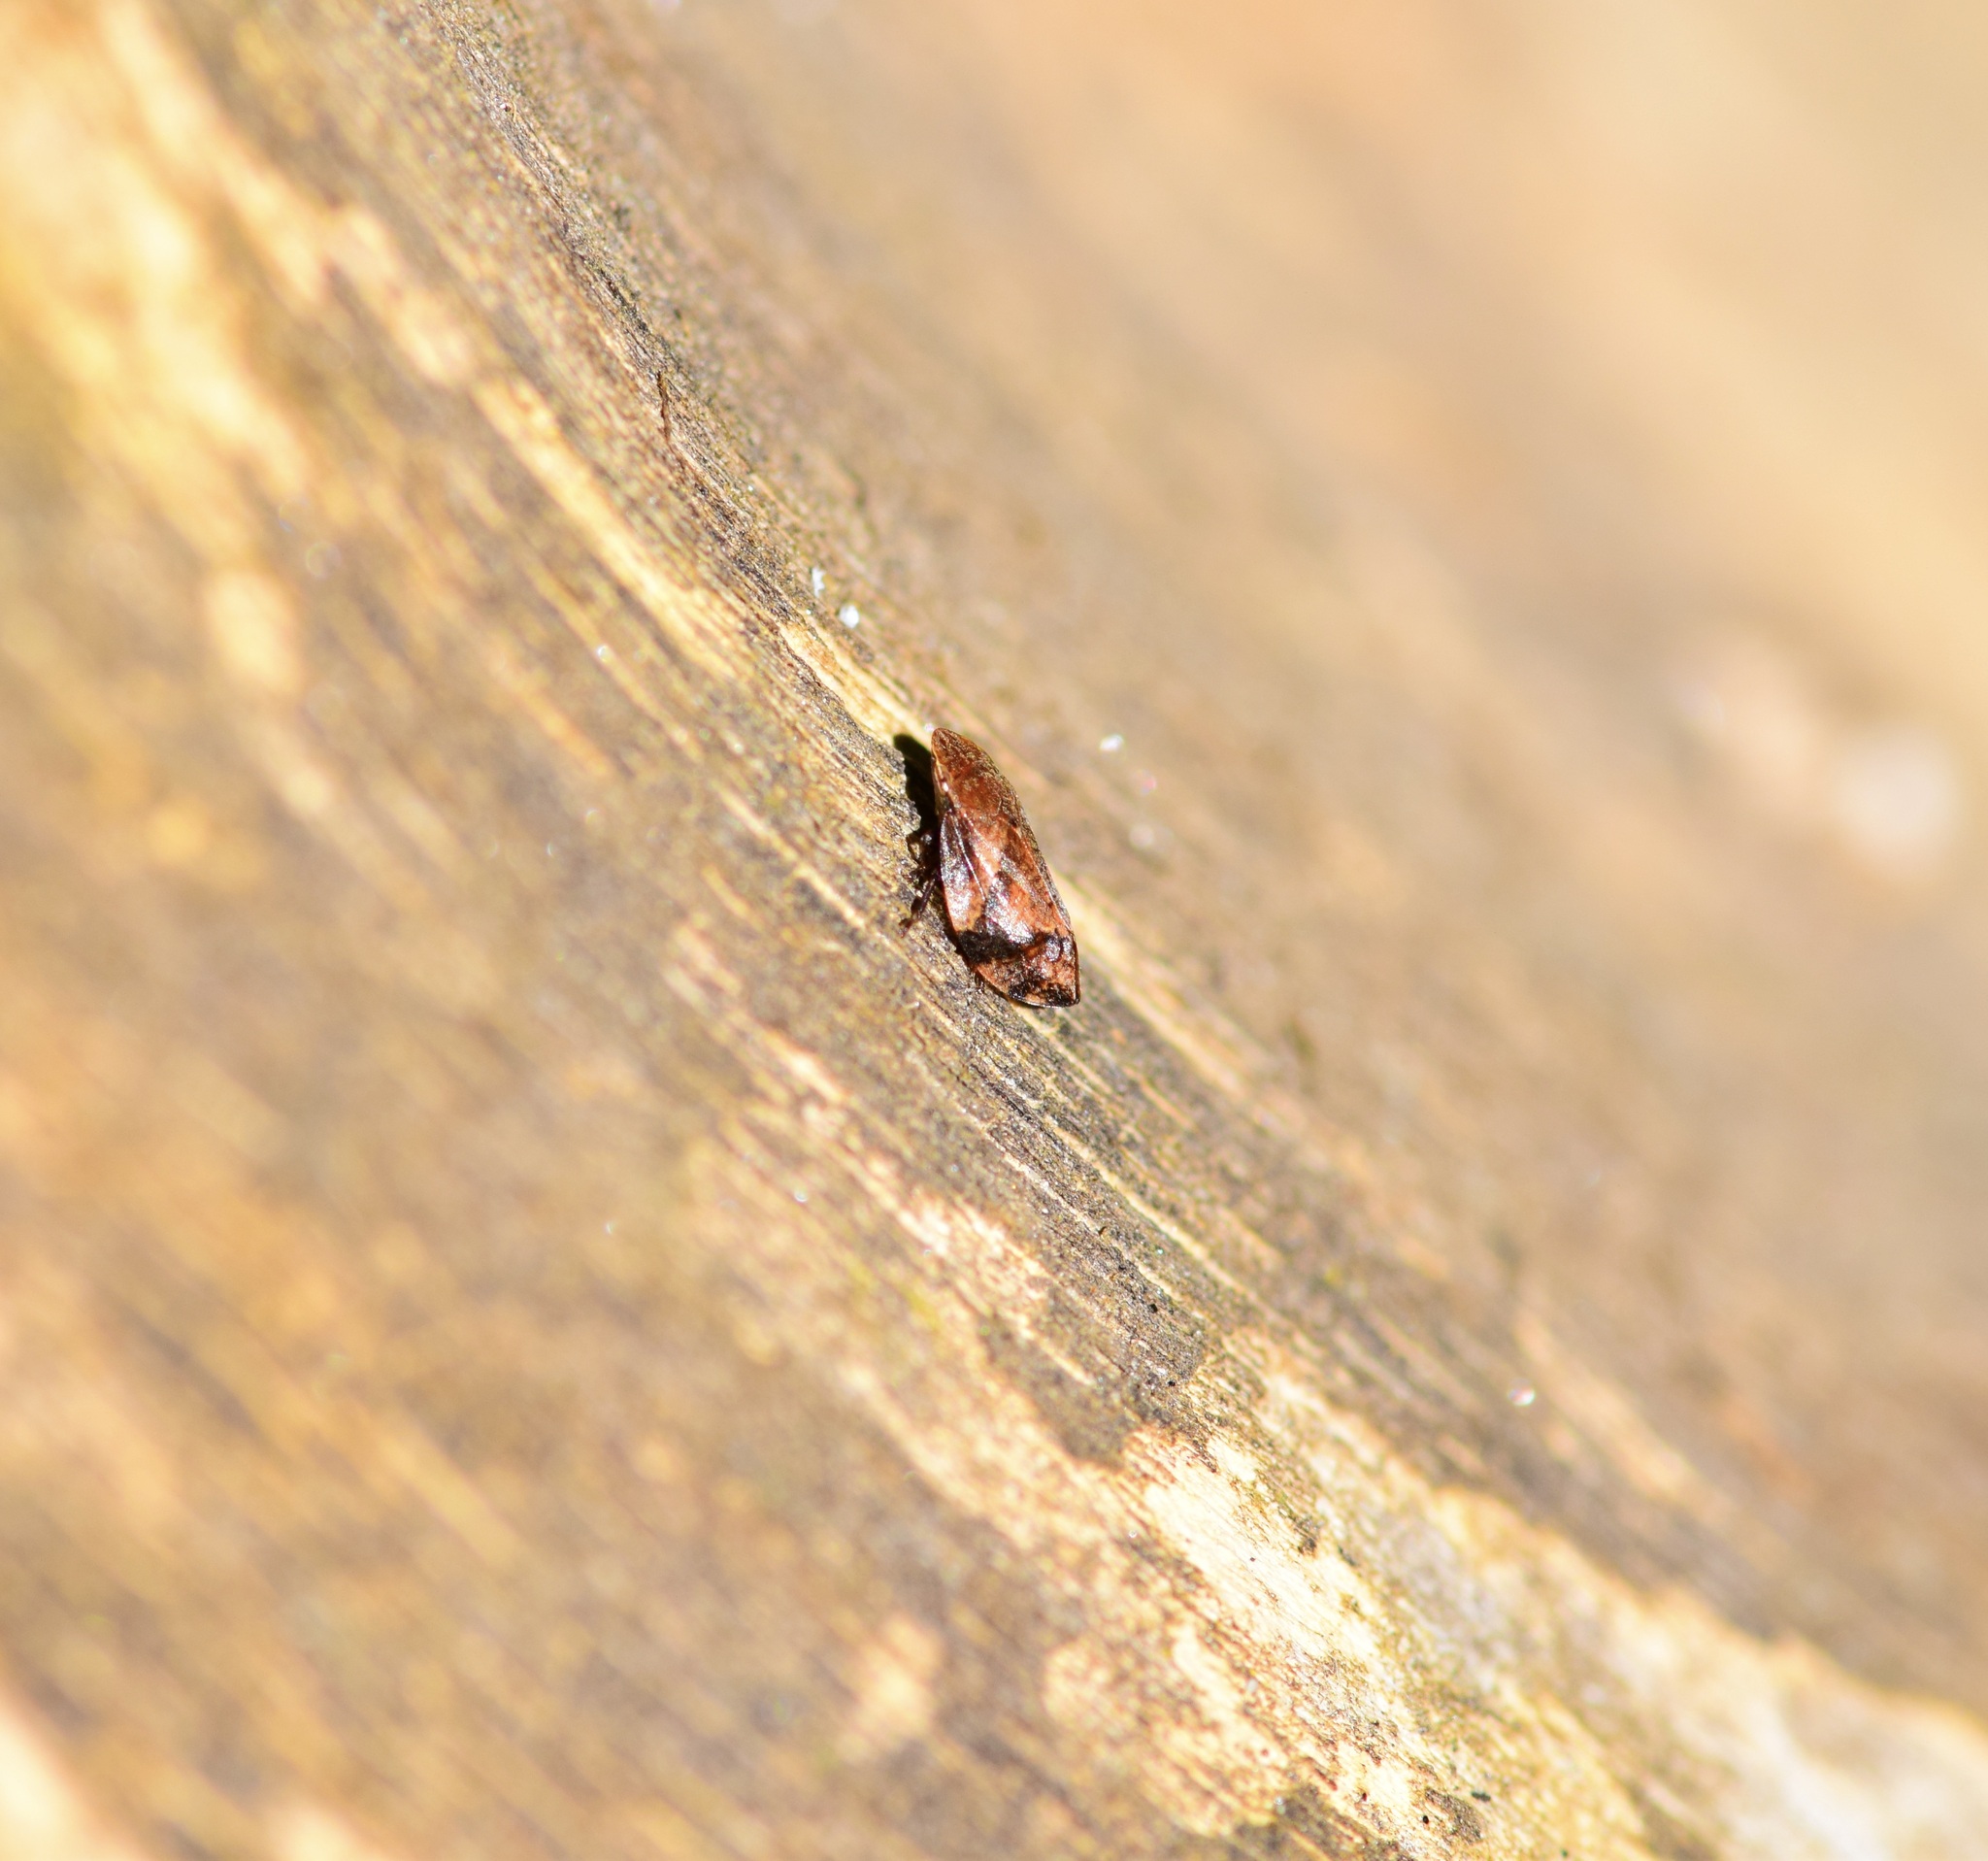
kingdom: Animalia
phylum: Arthropoda
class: Insecta
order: Hemiptera
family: Aphrophoridae
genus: Lepyronia
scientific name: Lepyronia quadrangularis
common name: Diamond-backed spittlebug
